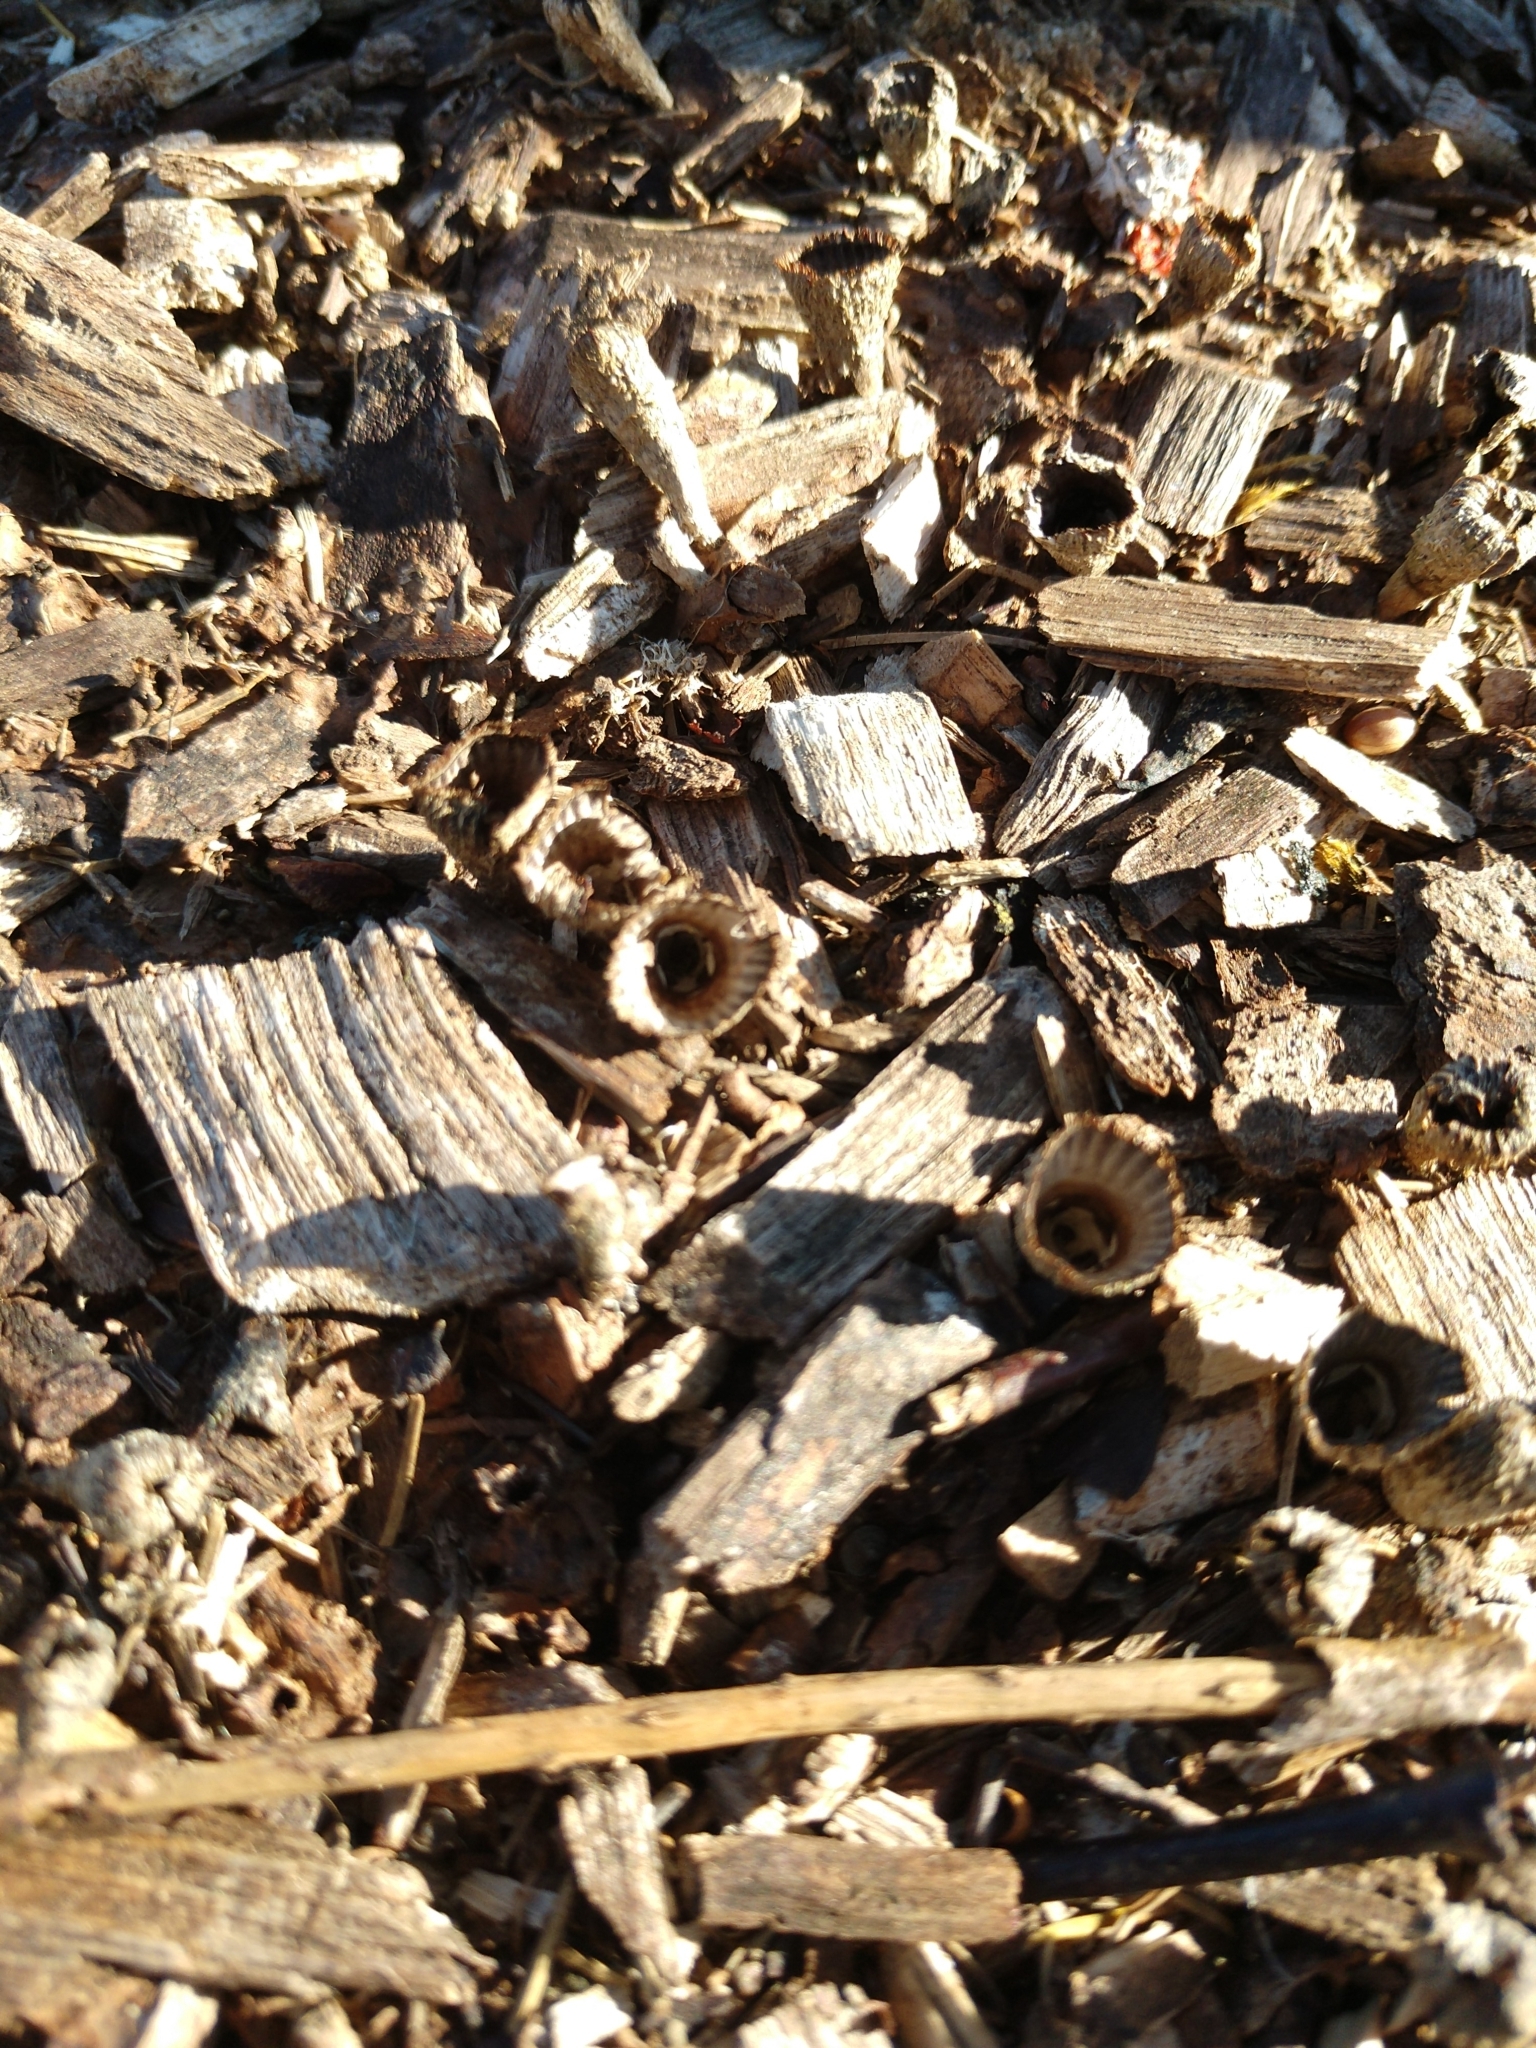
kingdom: Fungi
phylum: Basidiomycota
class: Agaricomycetes
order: Agaricales
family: Agaricaceae
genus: Cyathus
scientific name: Cyathus striatus
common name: Fluted bird's nest
